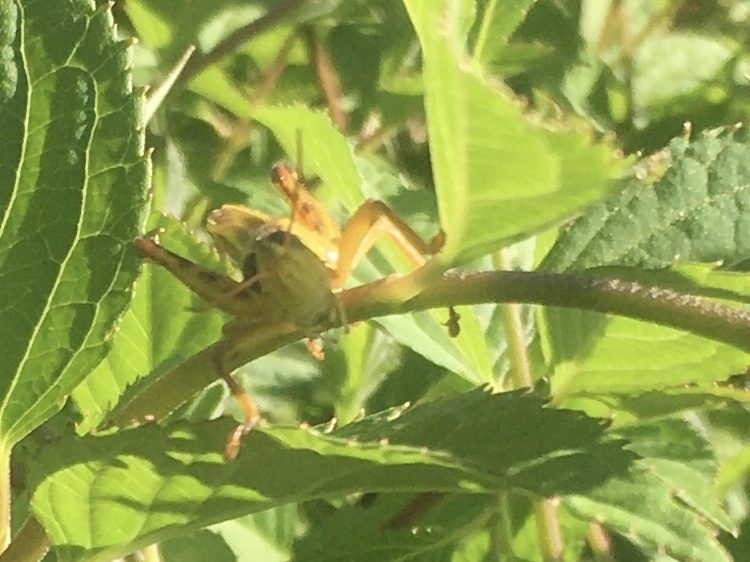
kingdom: Animalia
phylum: Arthropoda
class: Insecta
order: Orthoptera
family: Acrididae
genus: Melanoplus
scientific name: Melanoplus bivittatus
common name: Two-striped grasshopper
